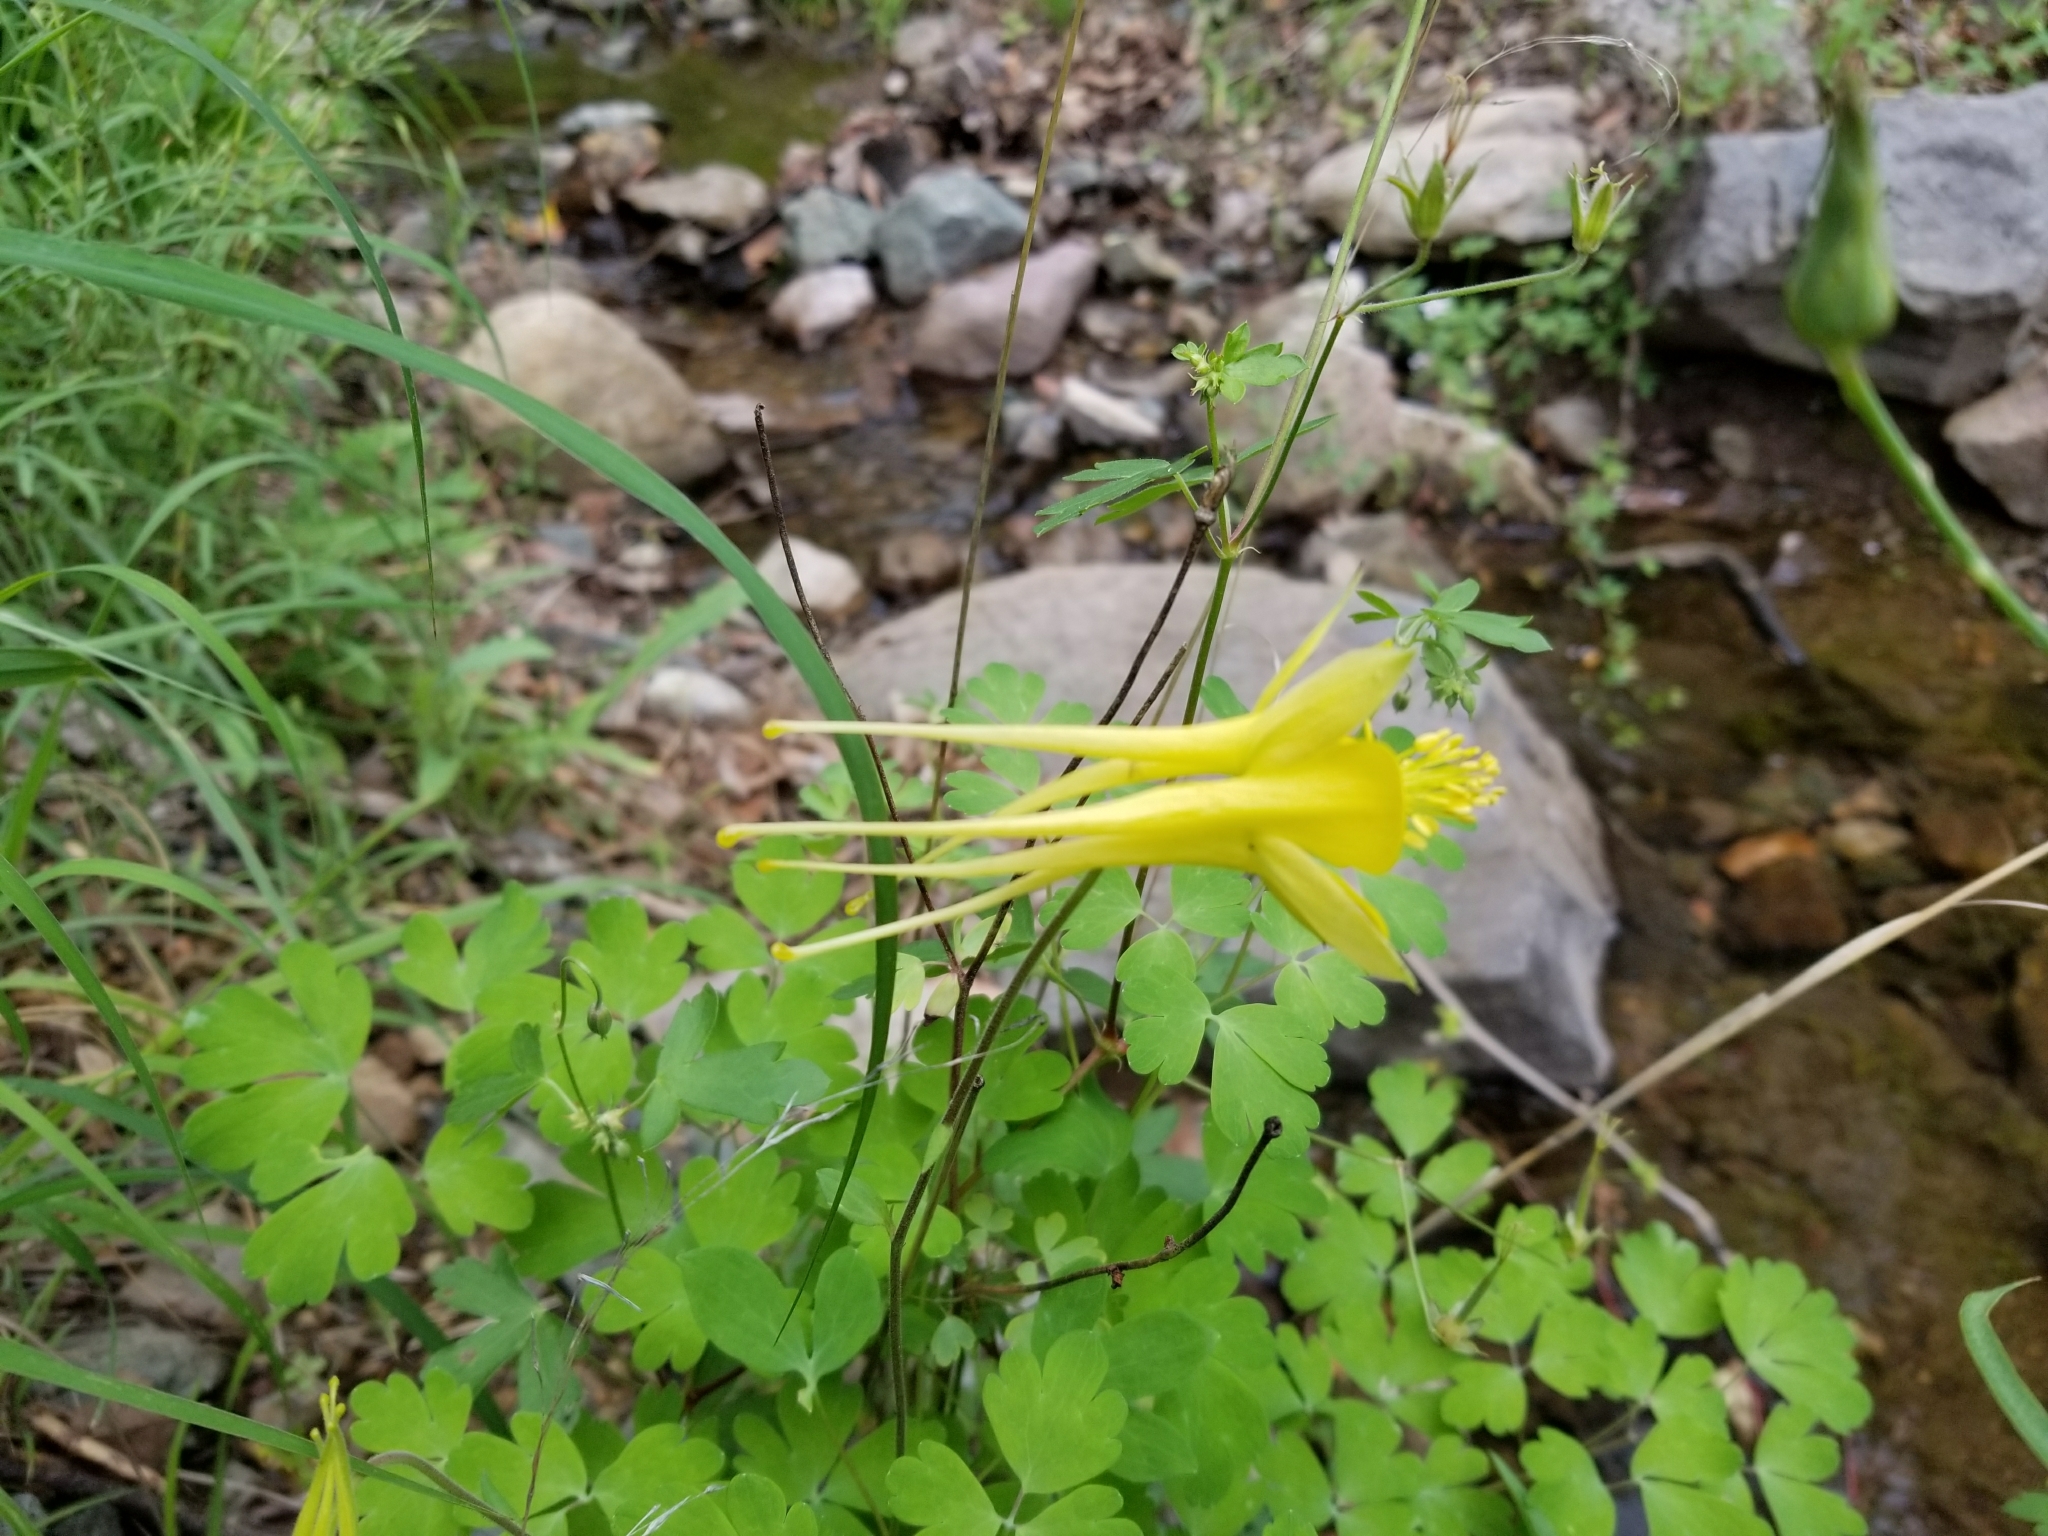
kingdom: Plantae
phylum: Tracheophyta
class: Magnoliopsida
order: Ranunculales
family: Ranunculaceae
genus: Aquilegia
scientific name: Aquilegia chrysantha
